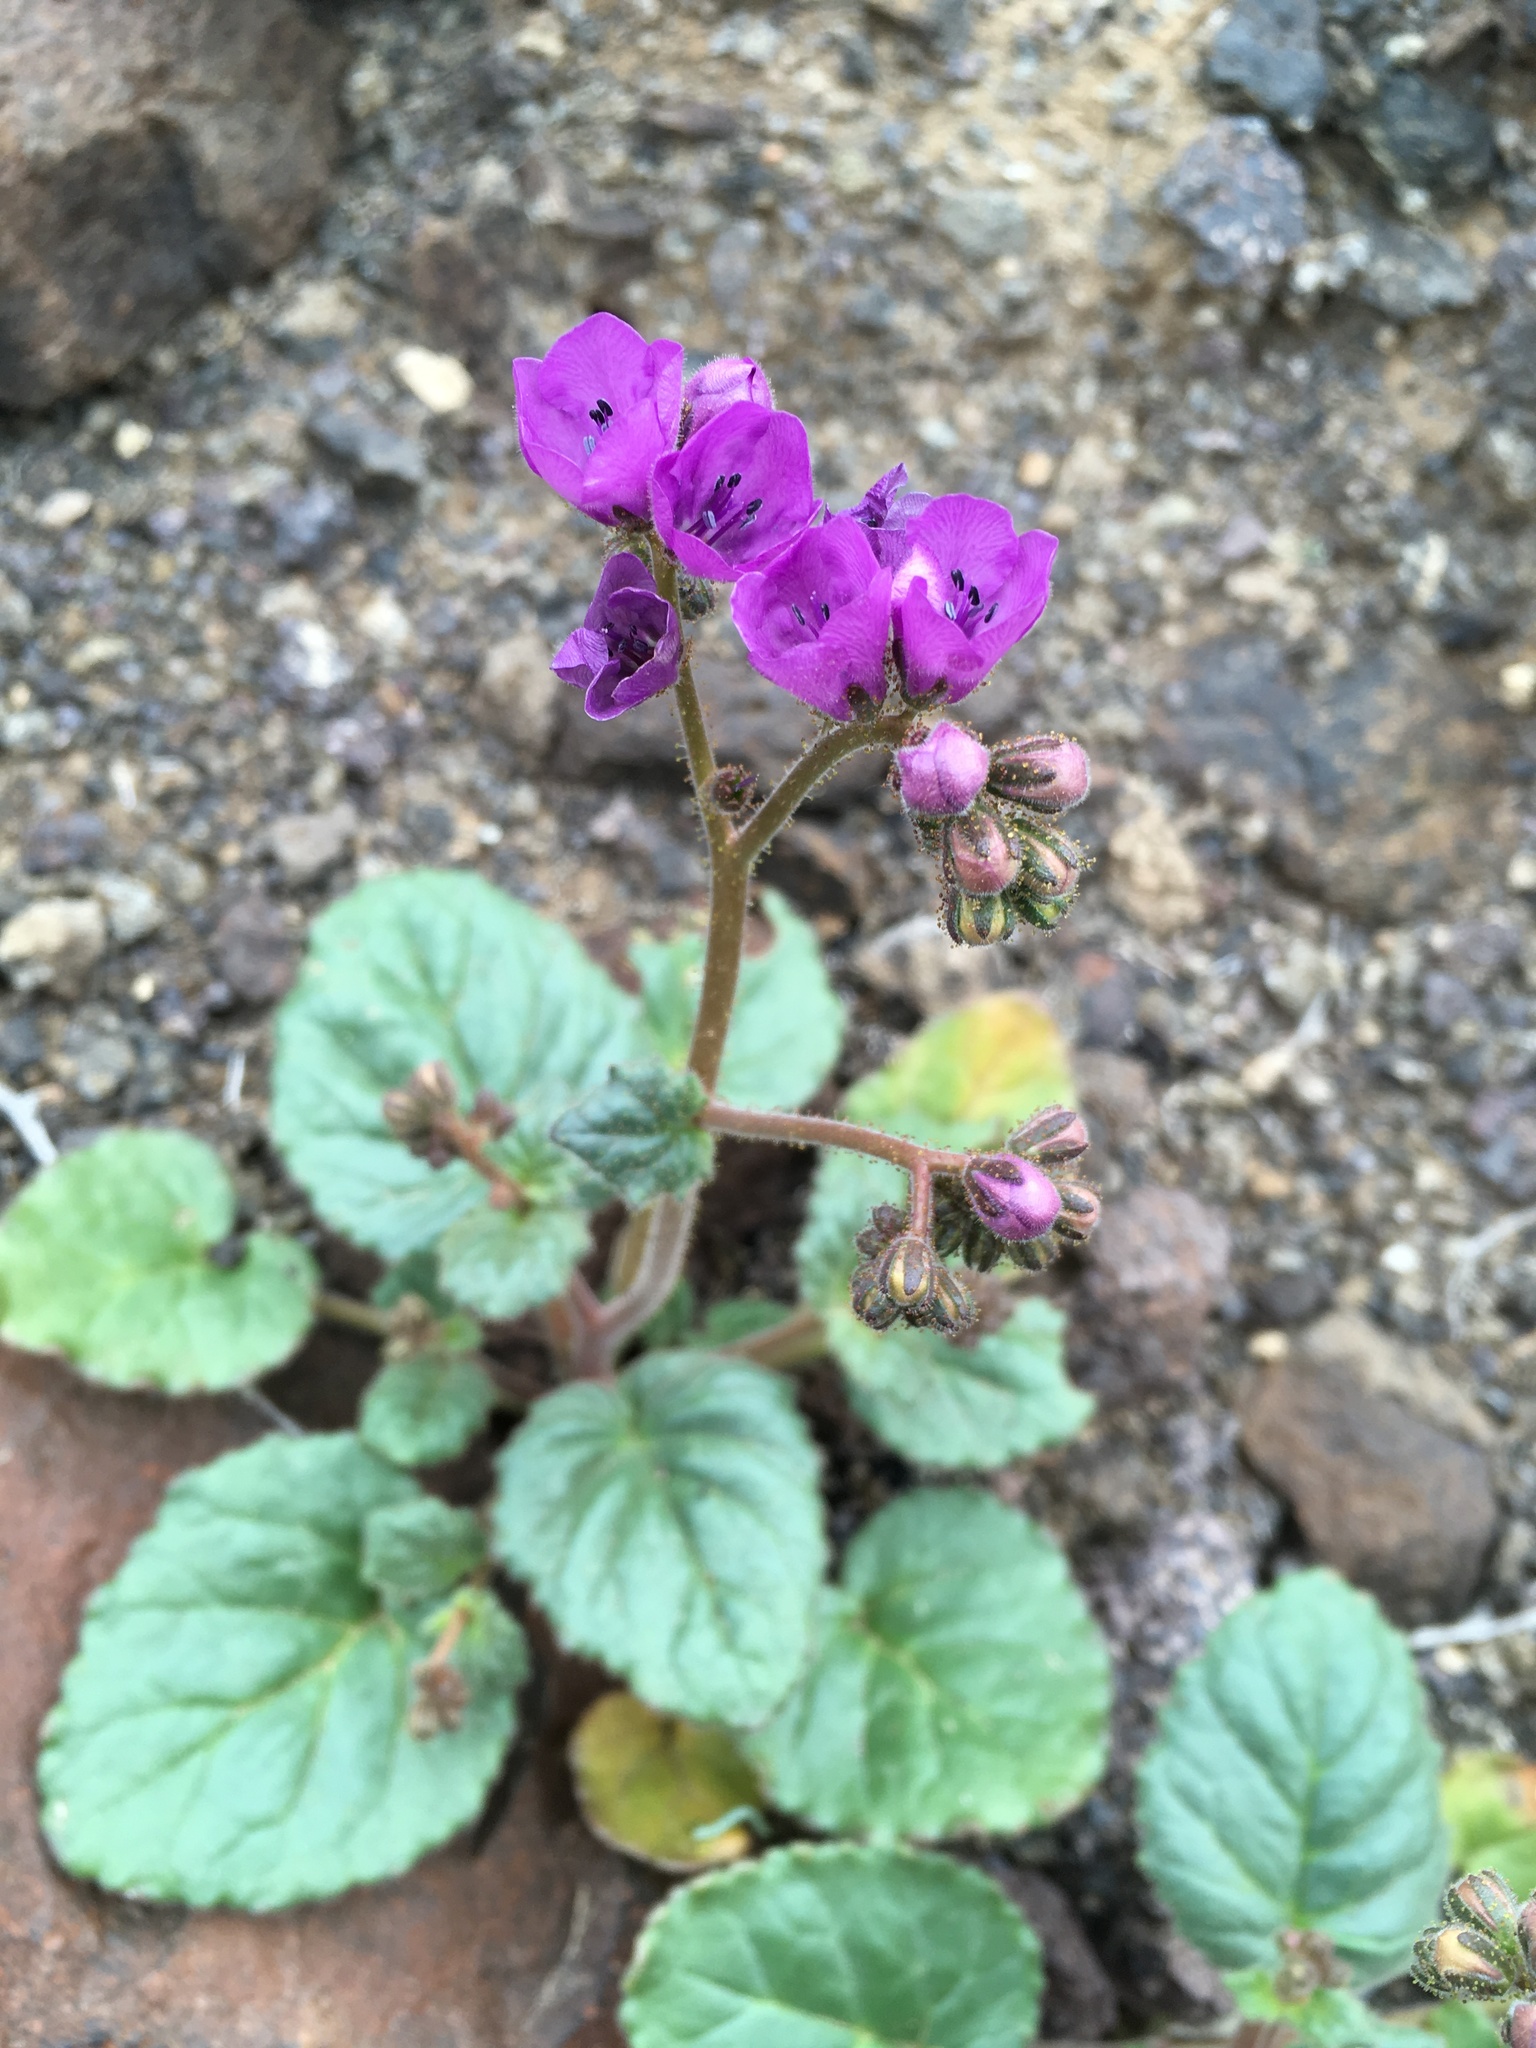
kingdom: Plantae
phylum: Tracheophyta
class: Magnoliopsida
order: Boraginales
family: Hydrophyllaceae
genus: Phacelia
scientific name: Phacelia calthifolia
